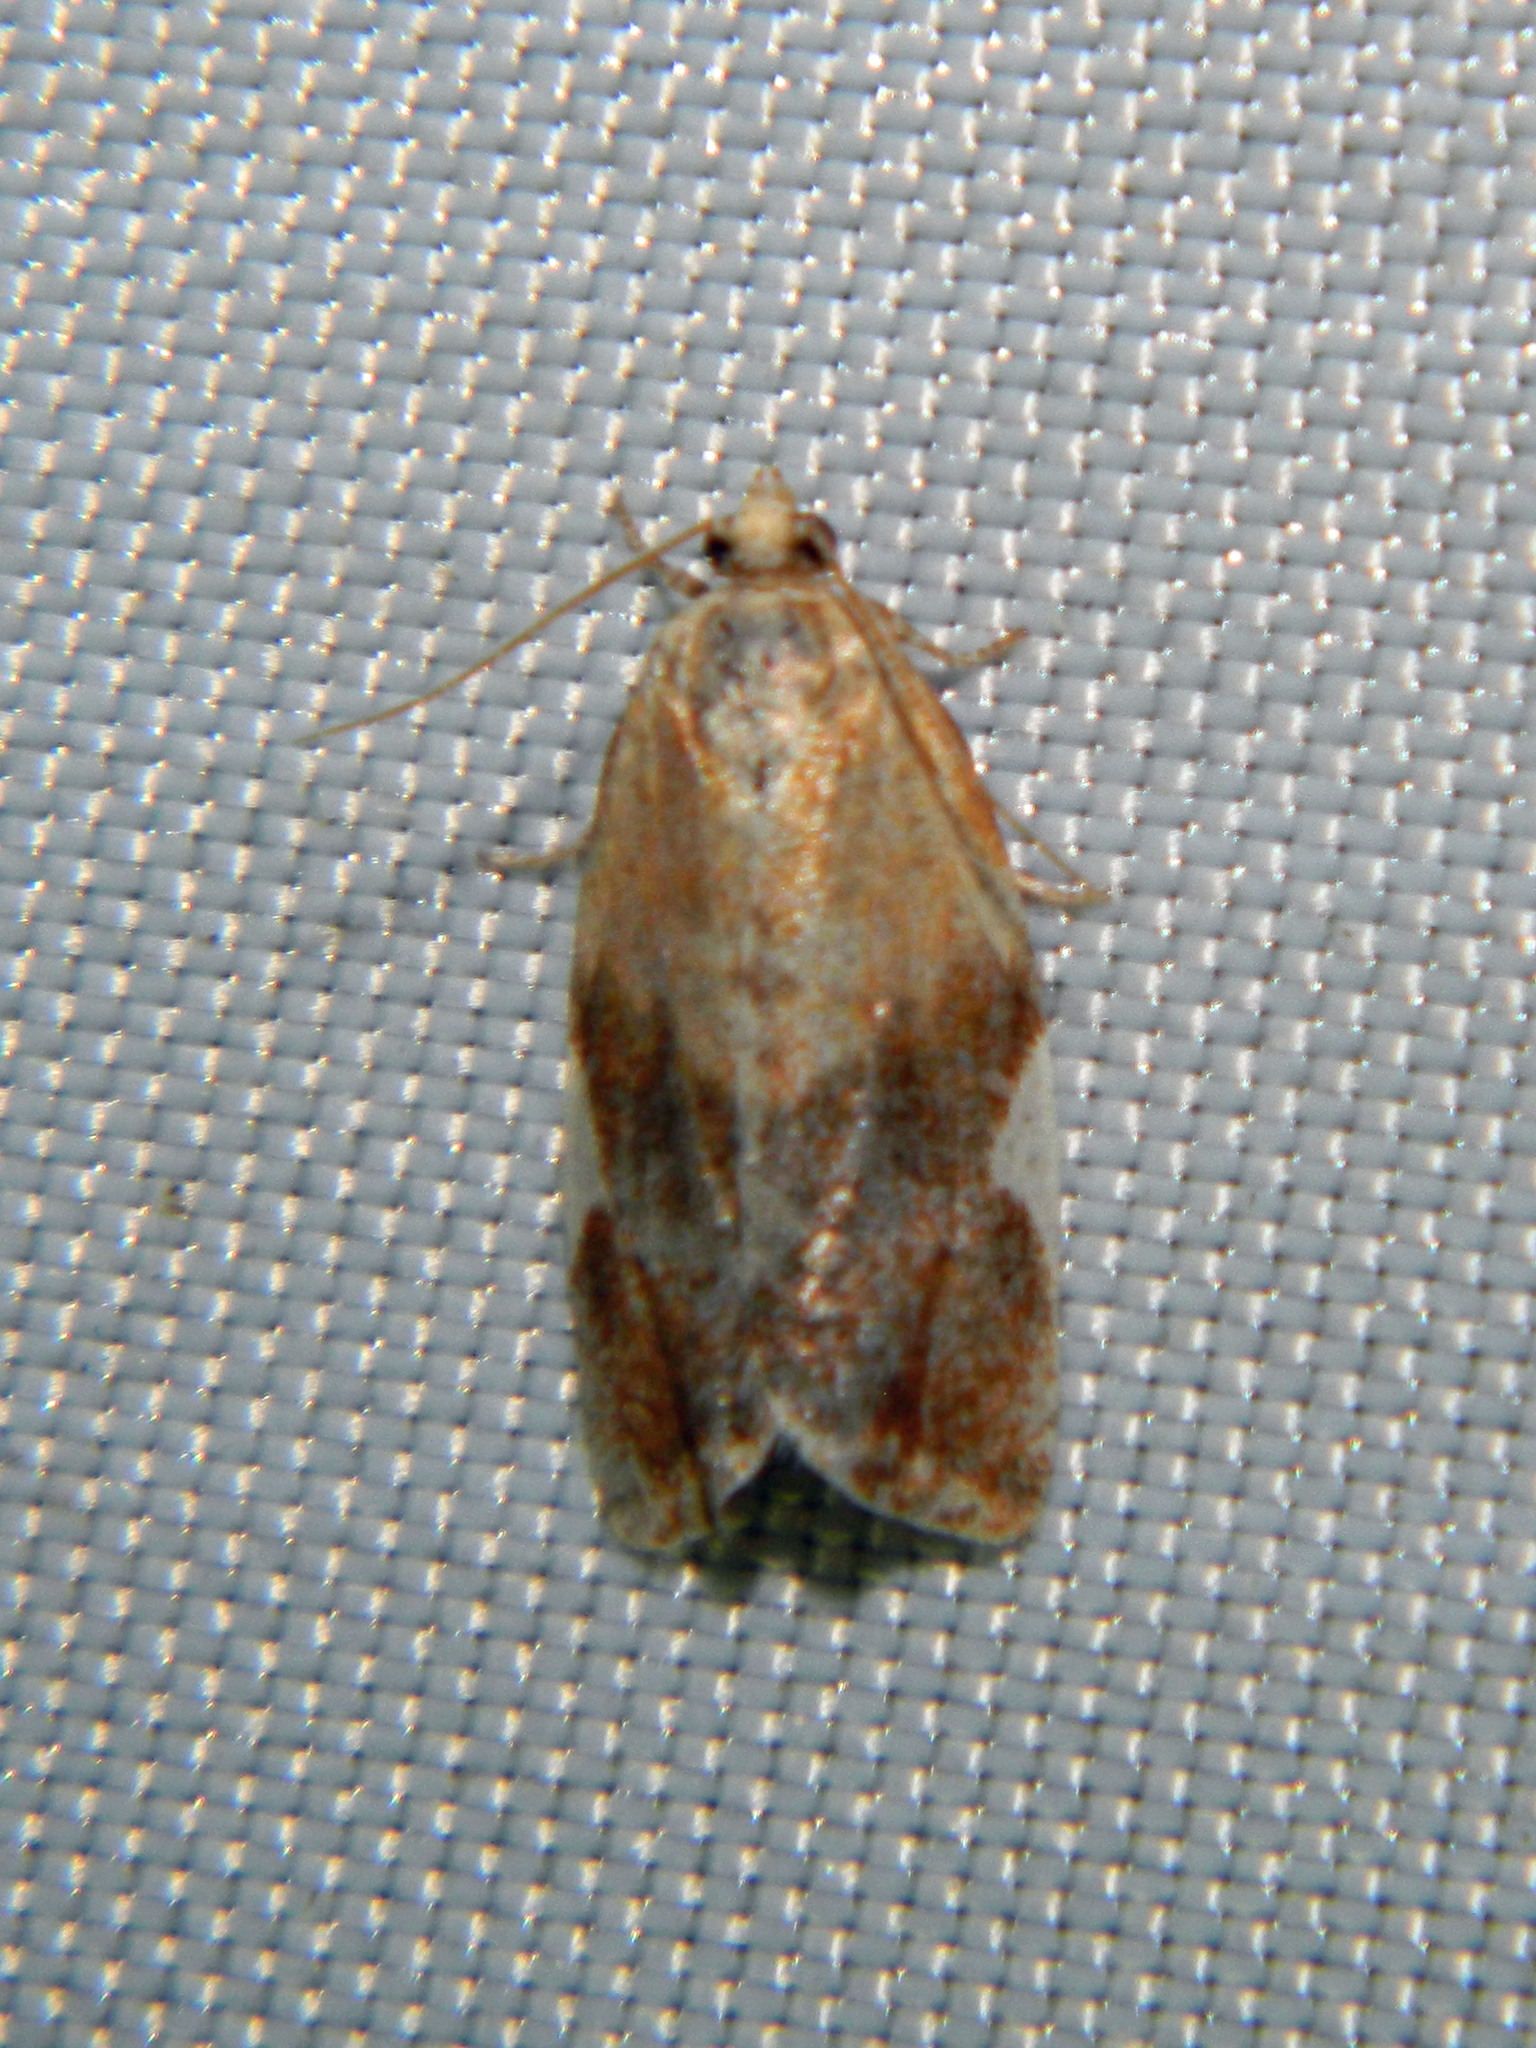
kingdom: Animalia
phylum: Arthropoda
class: Insecta
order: Lepidoptera
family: Tortricidae
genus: Clepsis
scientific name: Clepsis persicana
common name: White triangle tortrix
